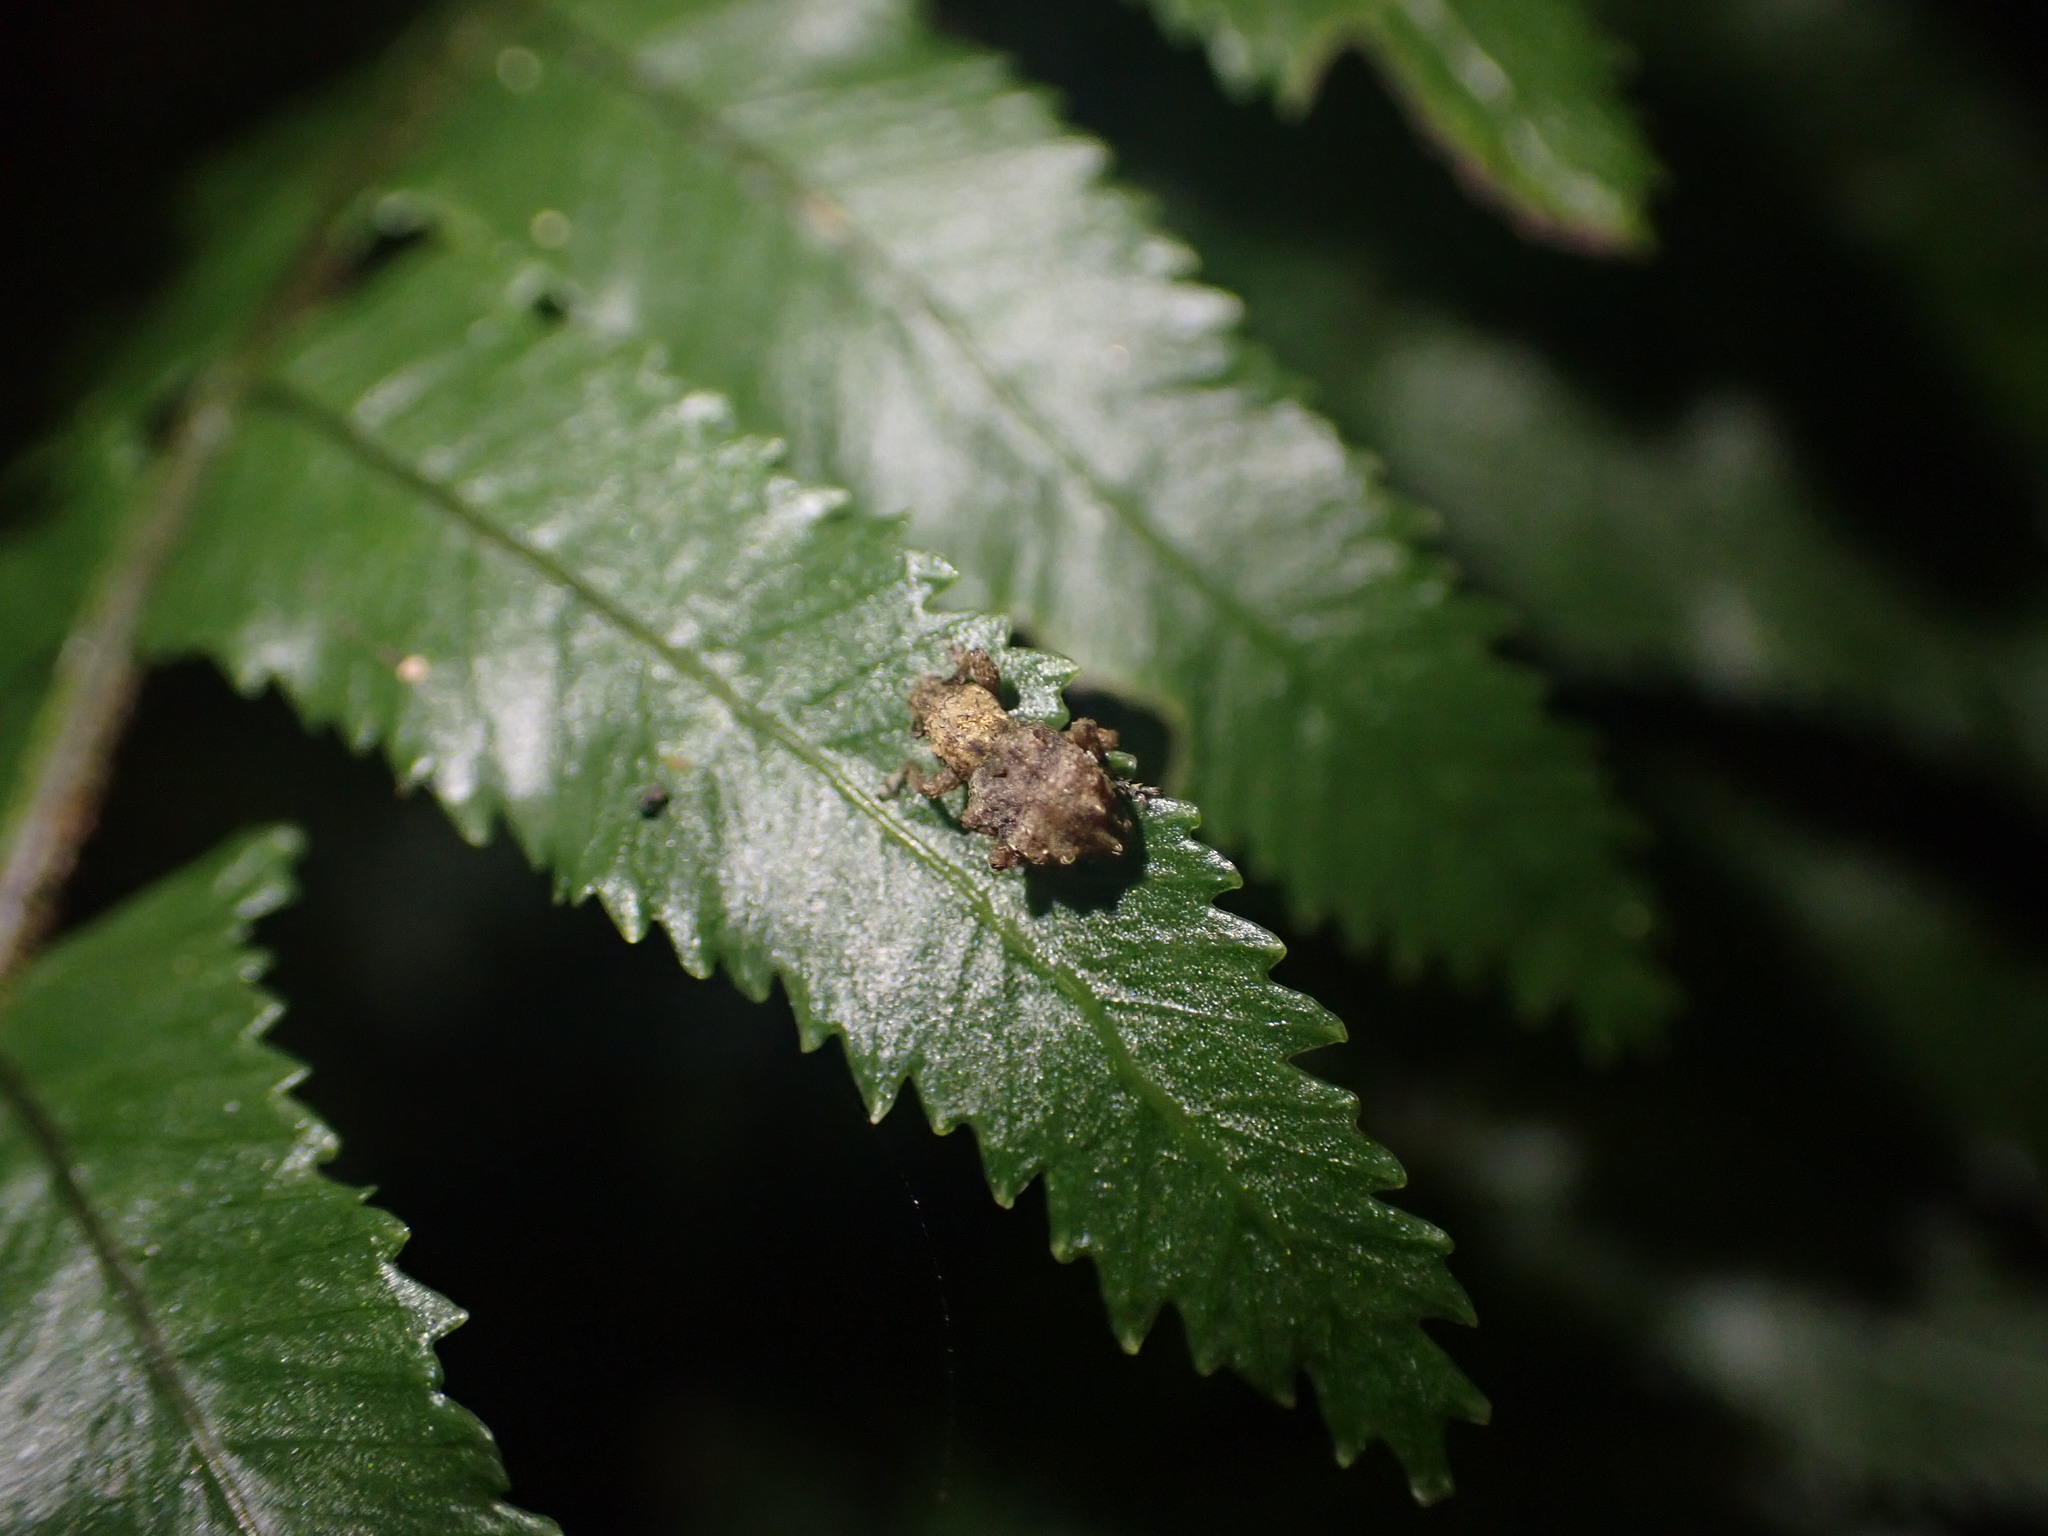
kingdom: Animalia
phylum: Arthropoda
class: Insecta
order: Coleoptera
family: Curculionidae
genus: Brachyolus
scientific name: Brachyolus punctatus
